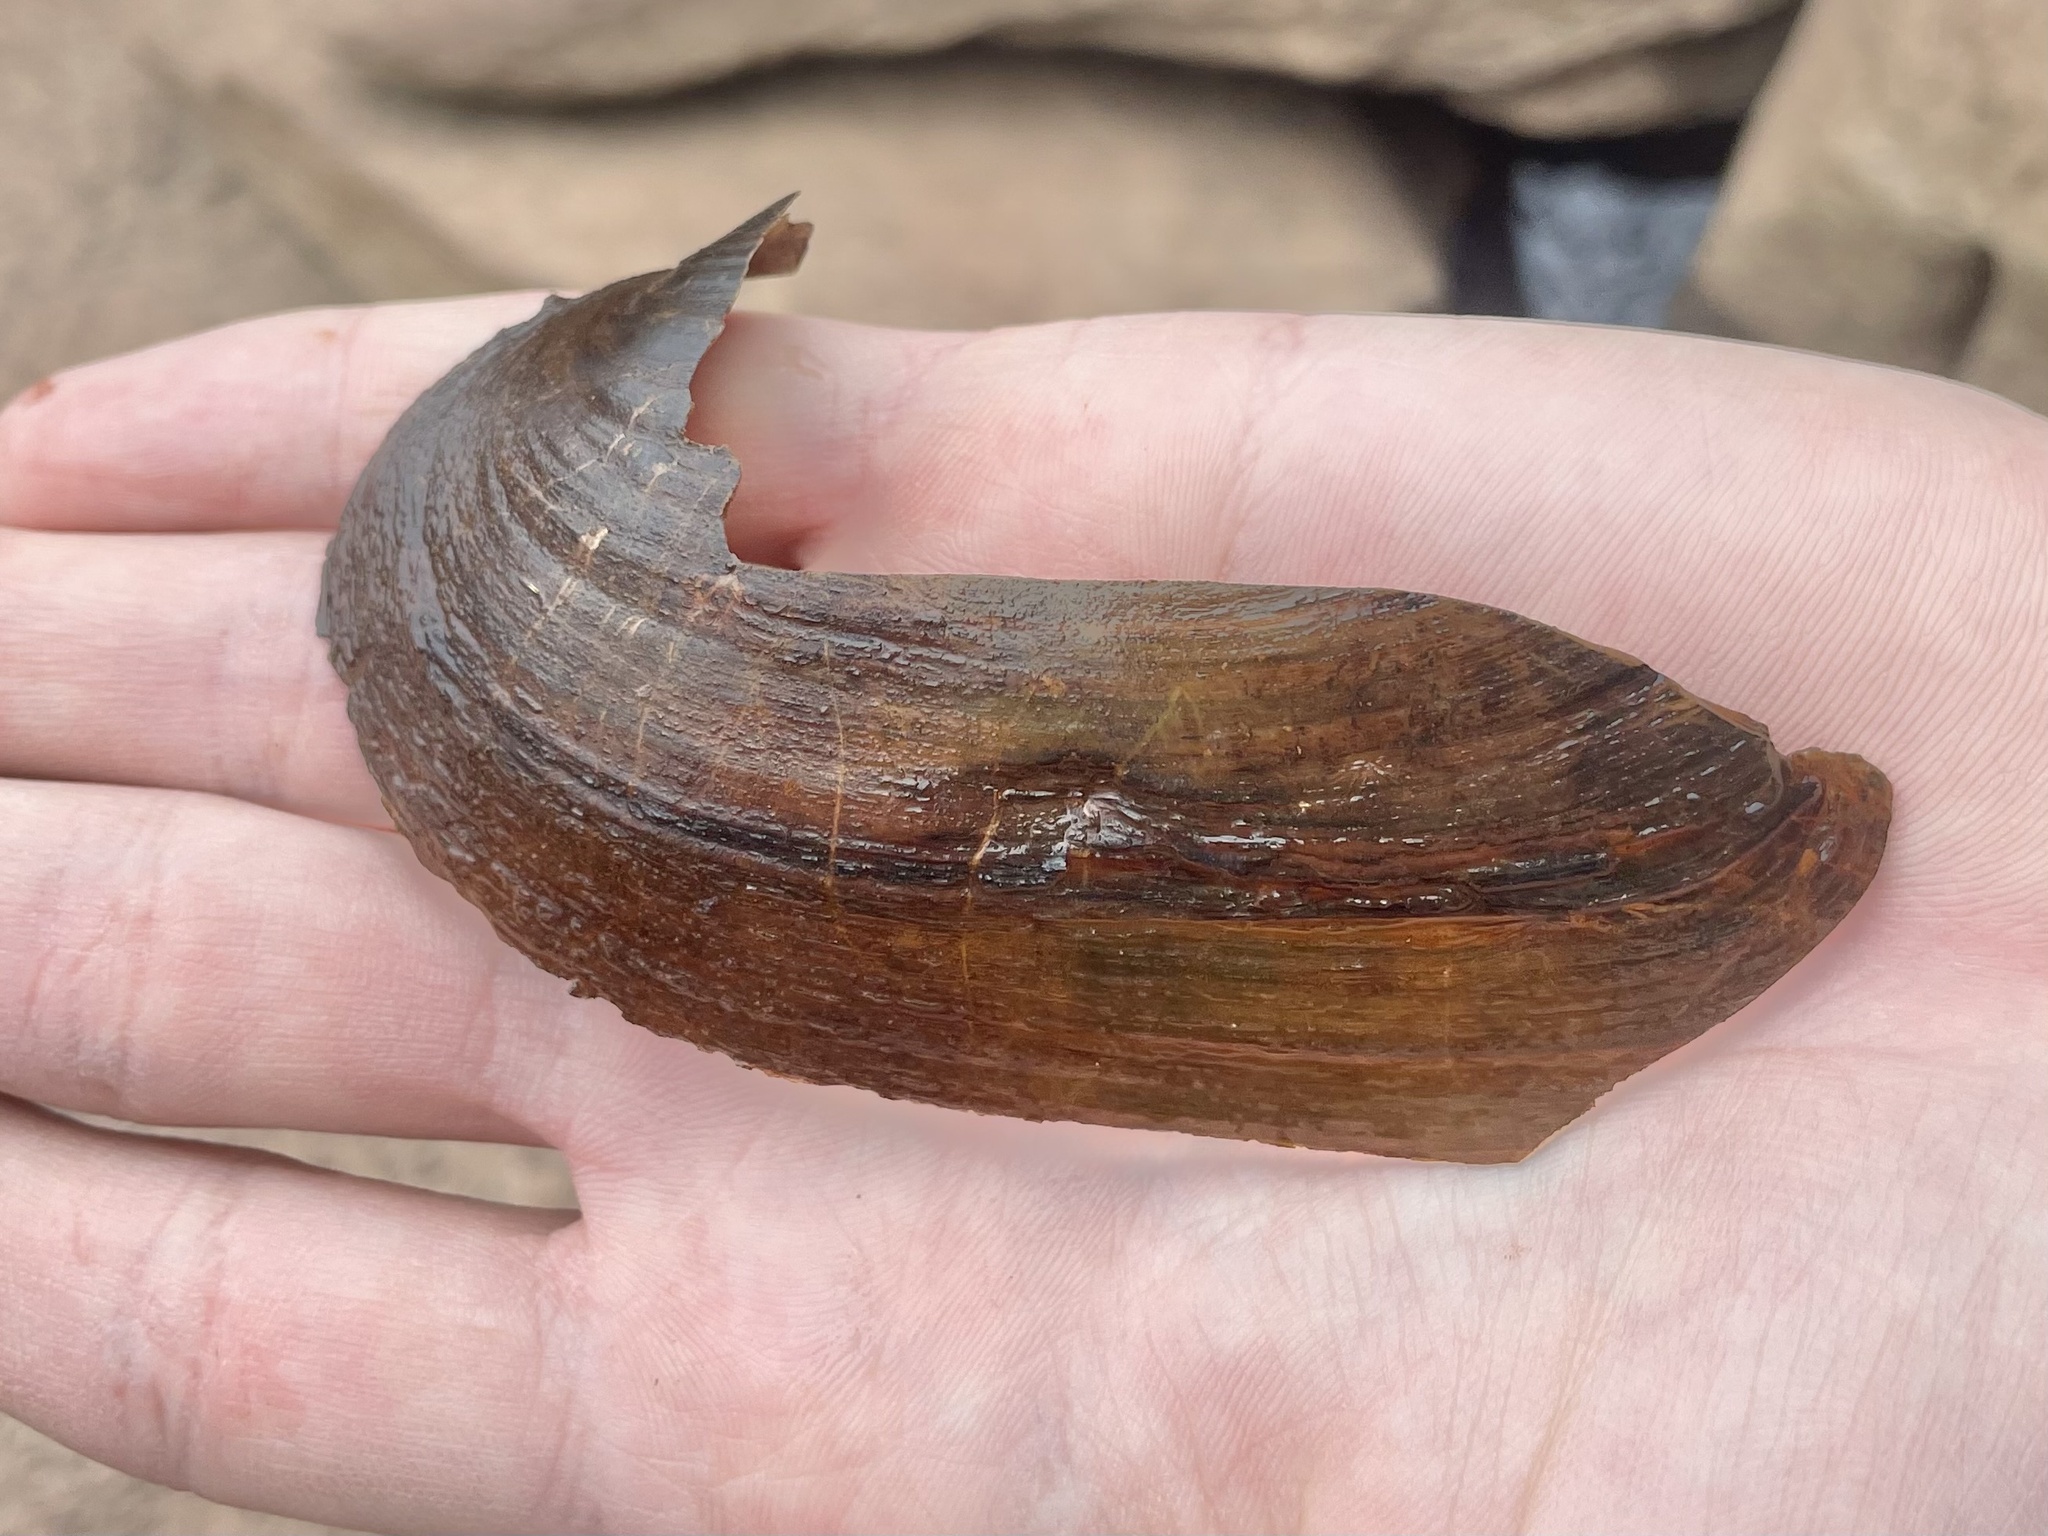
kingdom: Animalia
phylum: Mollusca
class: Bivalvia
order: Unionida
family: Unionidae
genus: Pyganodon
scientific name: Pyganodon grandis
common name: Giant floater
